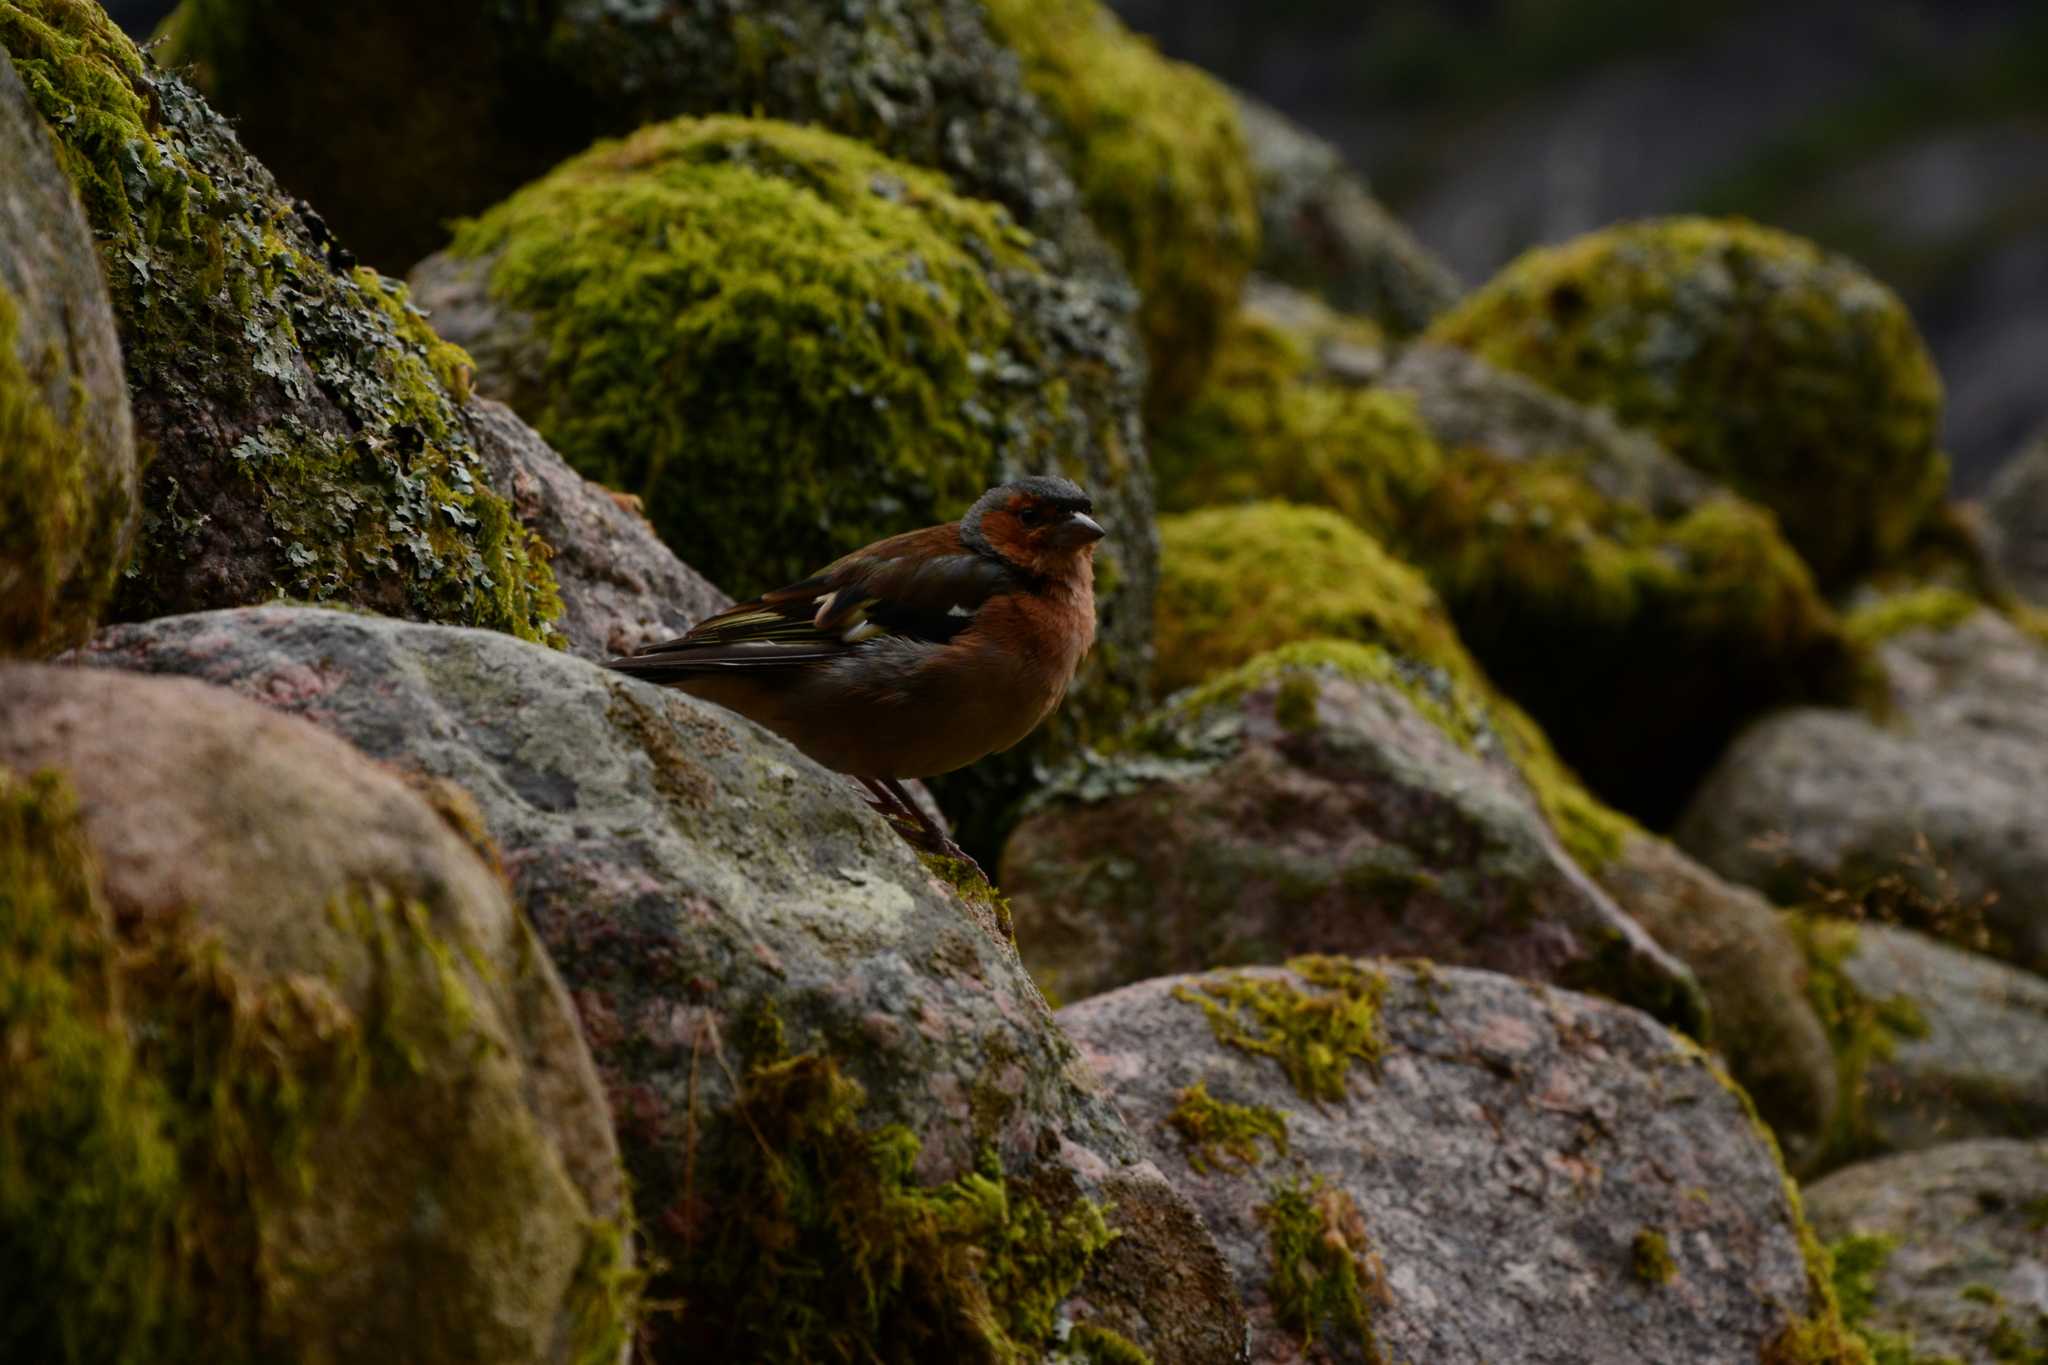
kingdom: Animalia
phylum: Chordata
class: Aves
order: Passeriformes
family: Fringillidae
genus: Fringilla
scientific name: Fringilla coelebs
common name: Common chaffinch
